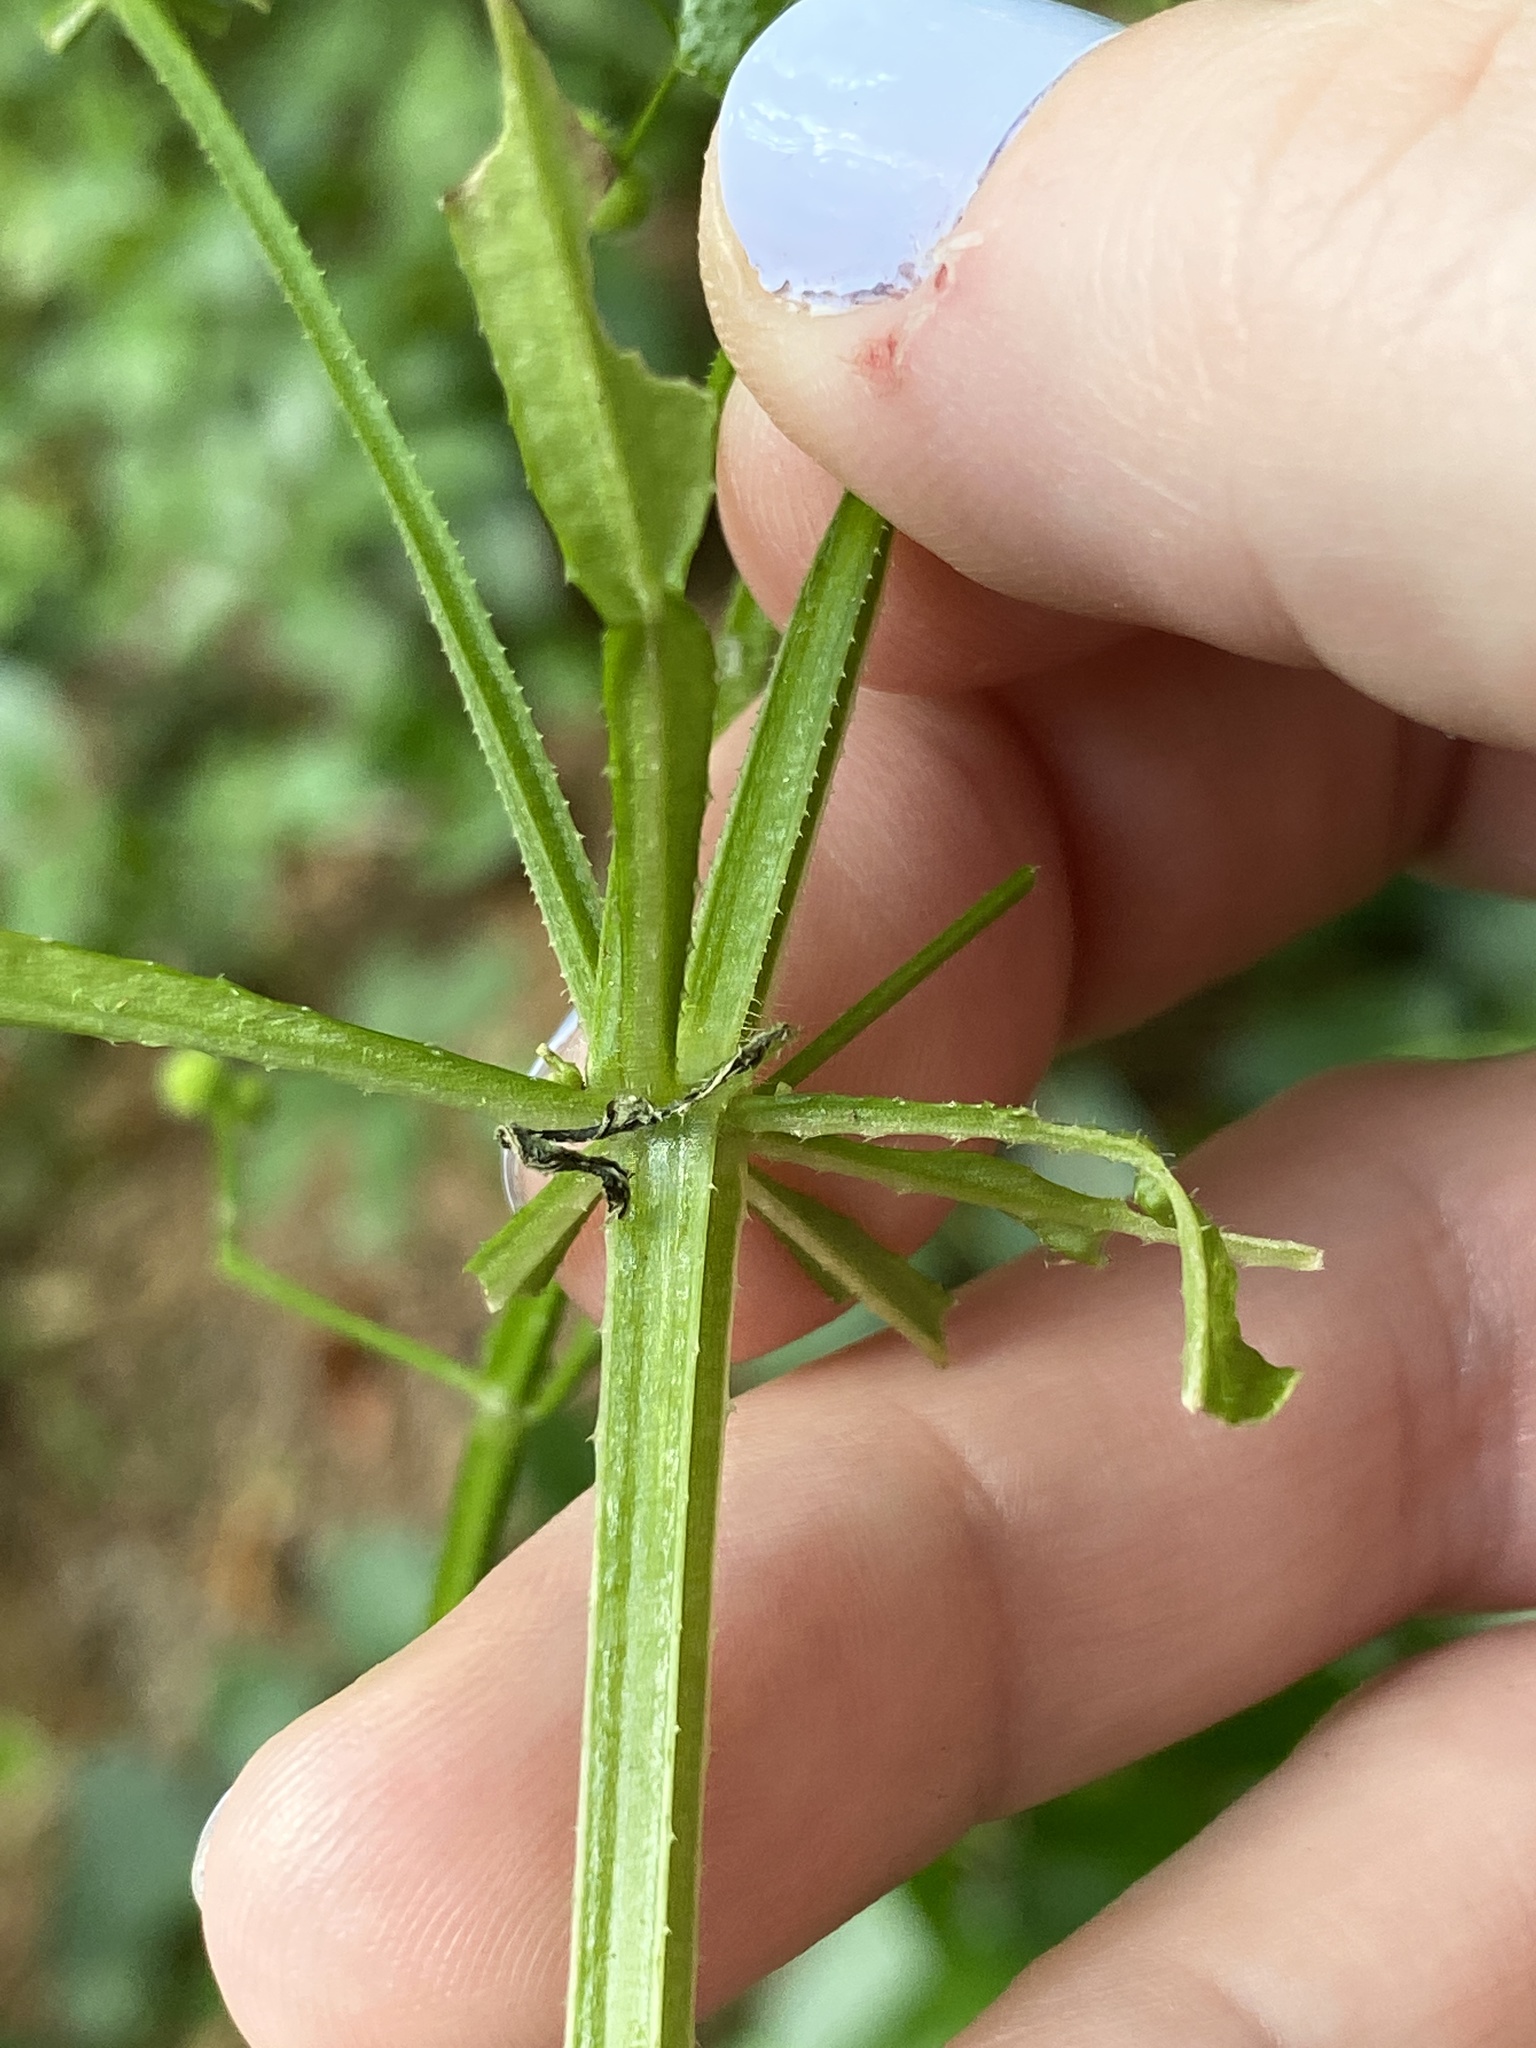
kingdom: Plantae
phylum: Tracheophyta
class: Magnoliopsida
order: Gentianales
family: Rubiaceae
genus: Galium
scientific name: Galium aparine
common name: Cleavers
